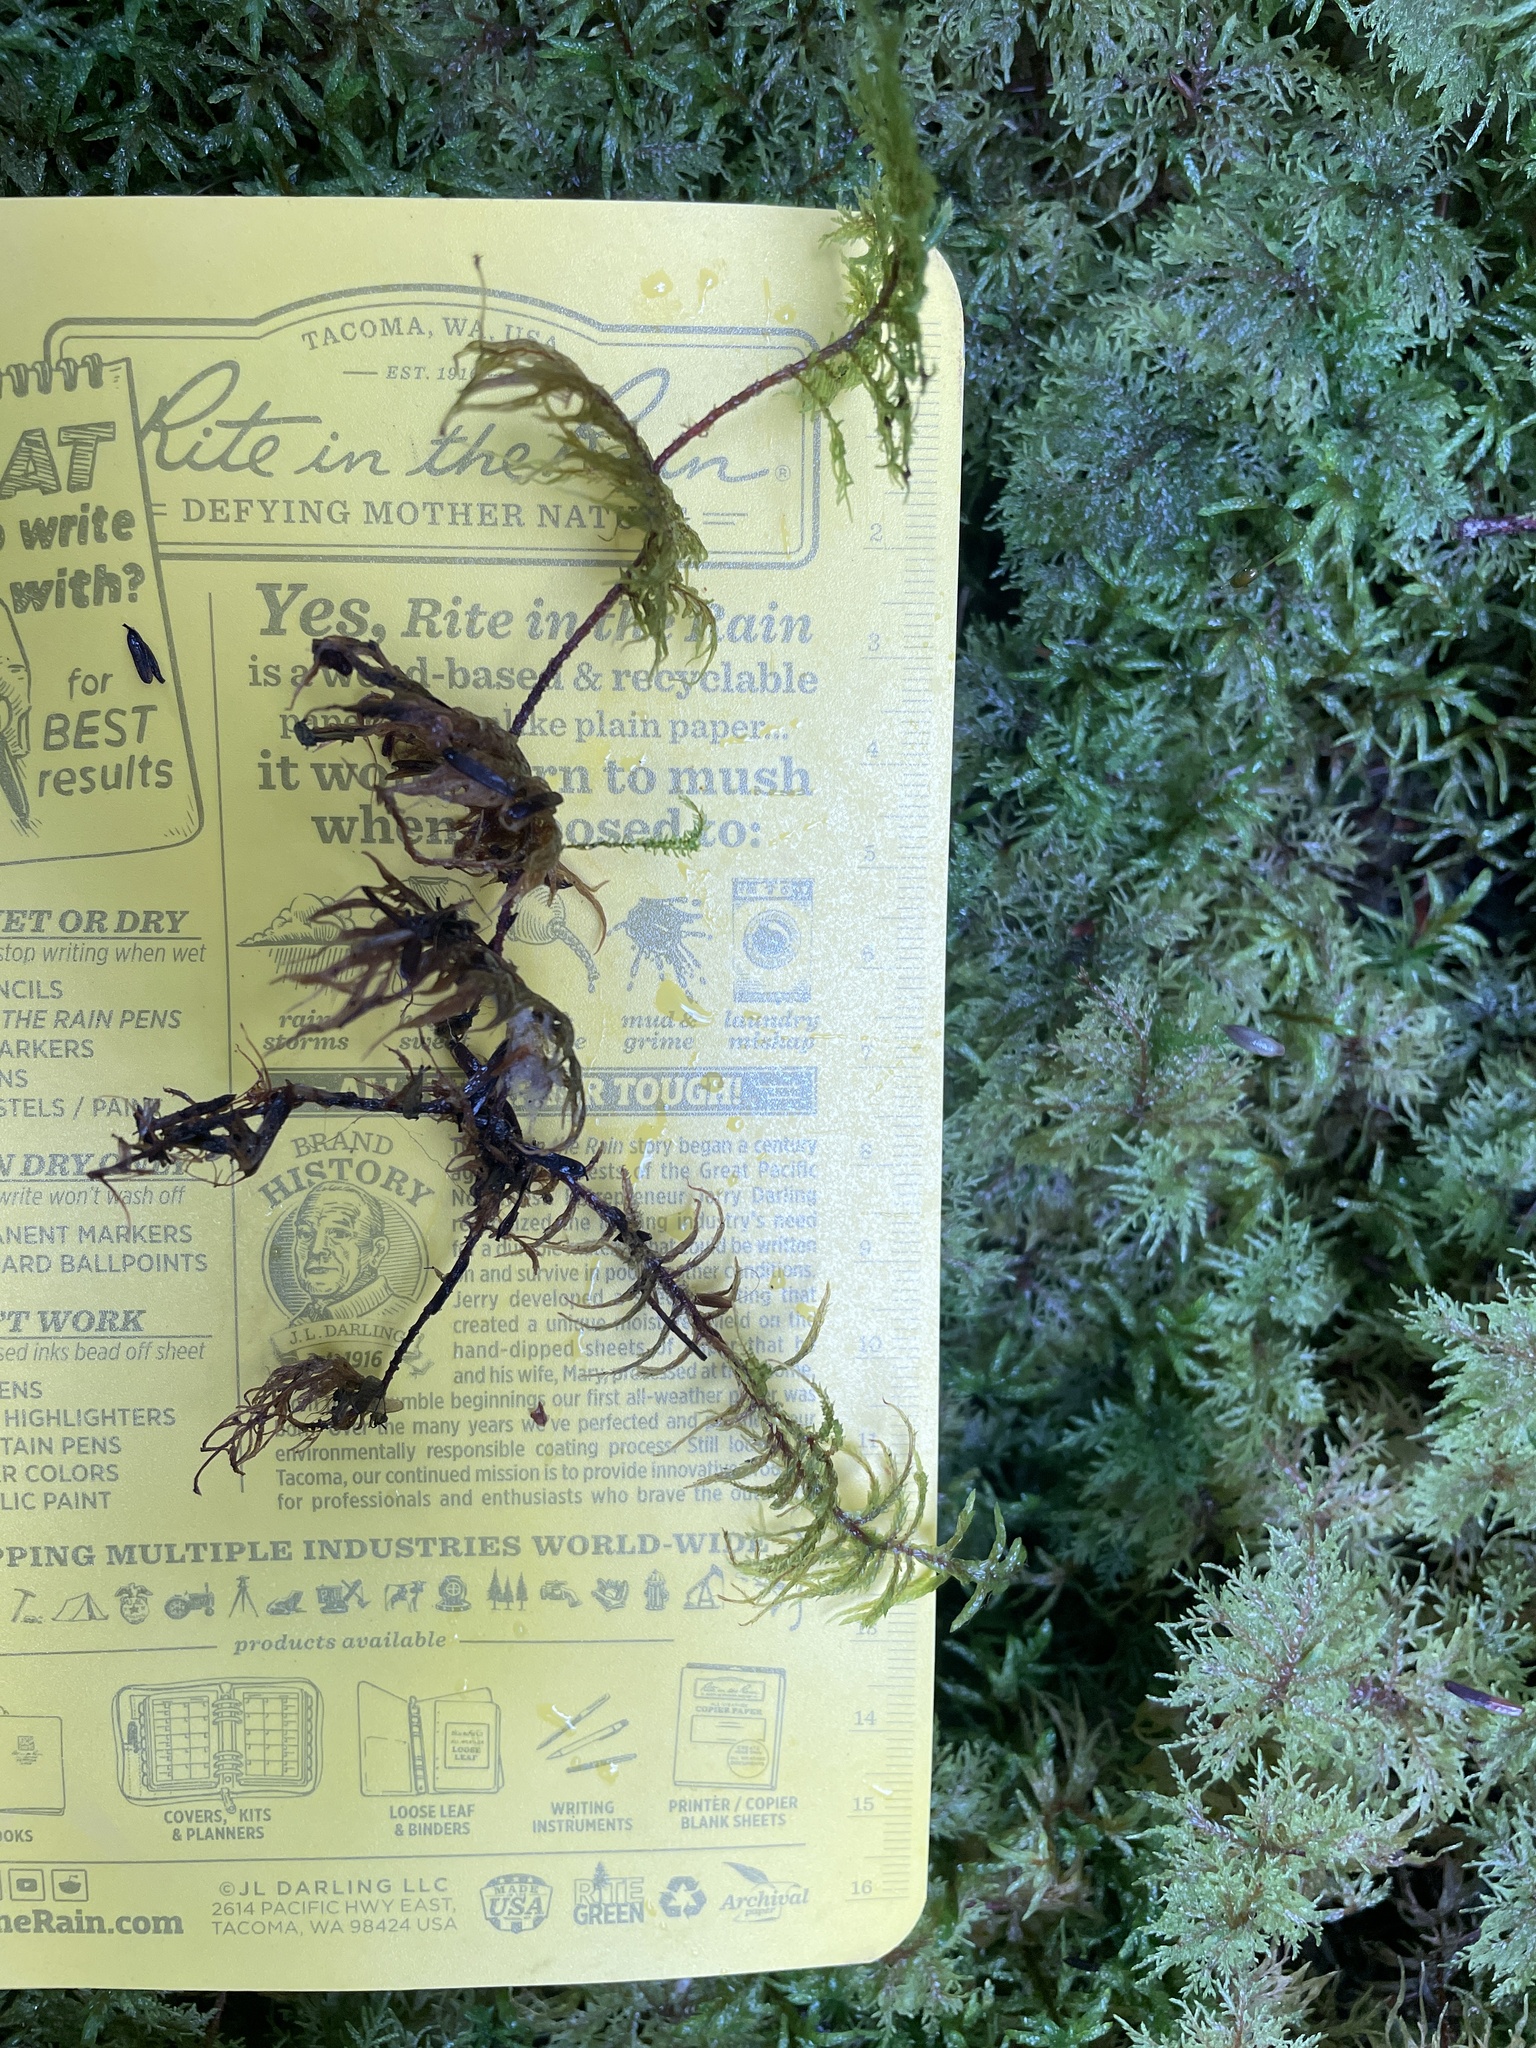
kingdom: Plantae
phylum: Bryophyta
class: Bryopsida
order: Hypnales
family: Hylocomiaceae
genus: Hylocomium
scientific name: Hylocomium splendens
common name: Stairstep moss
